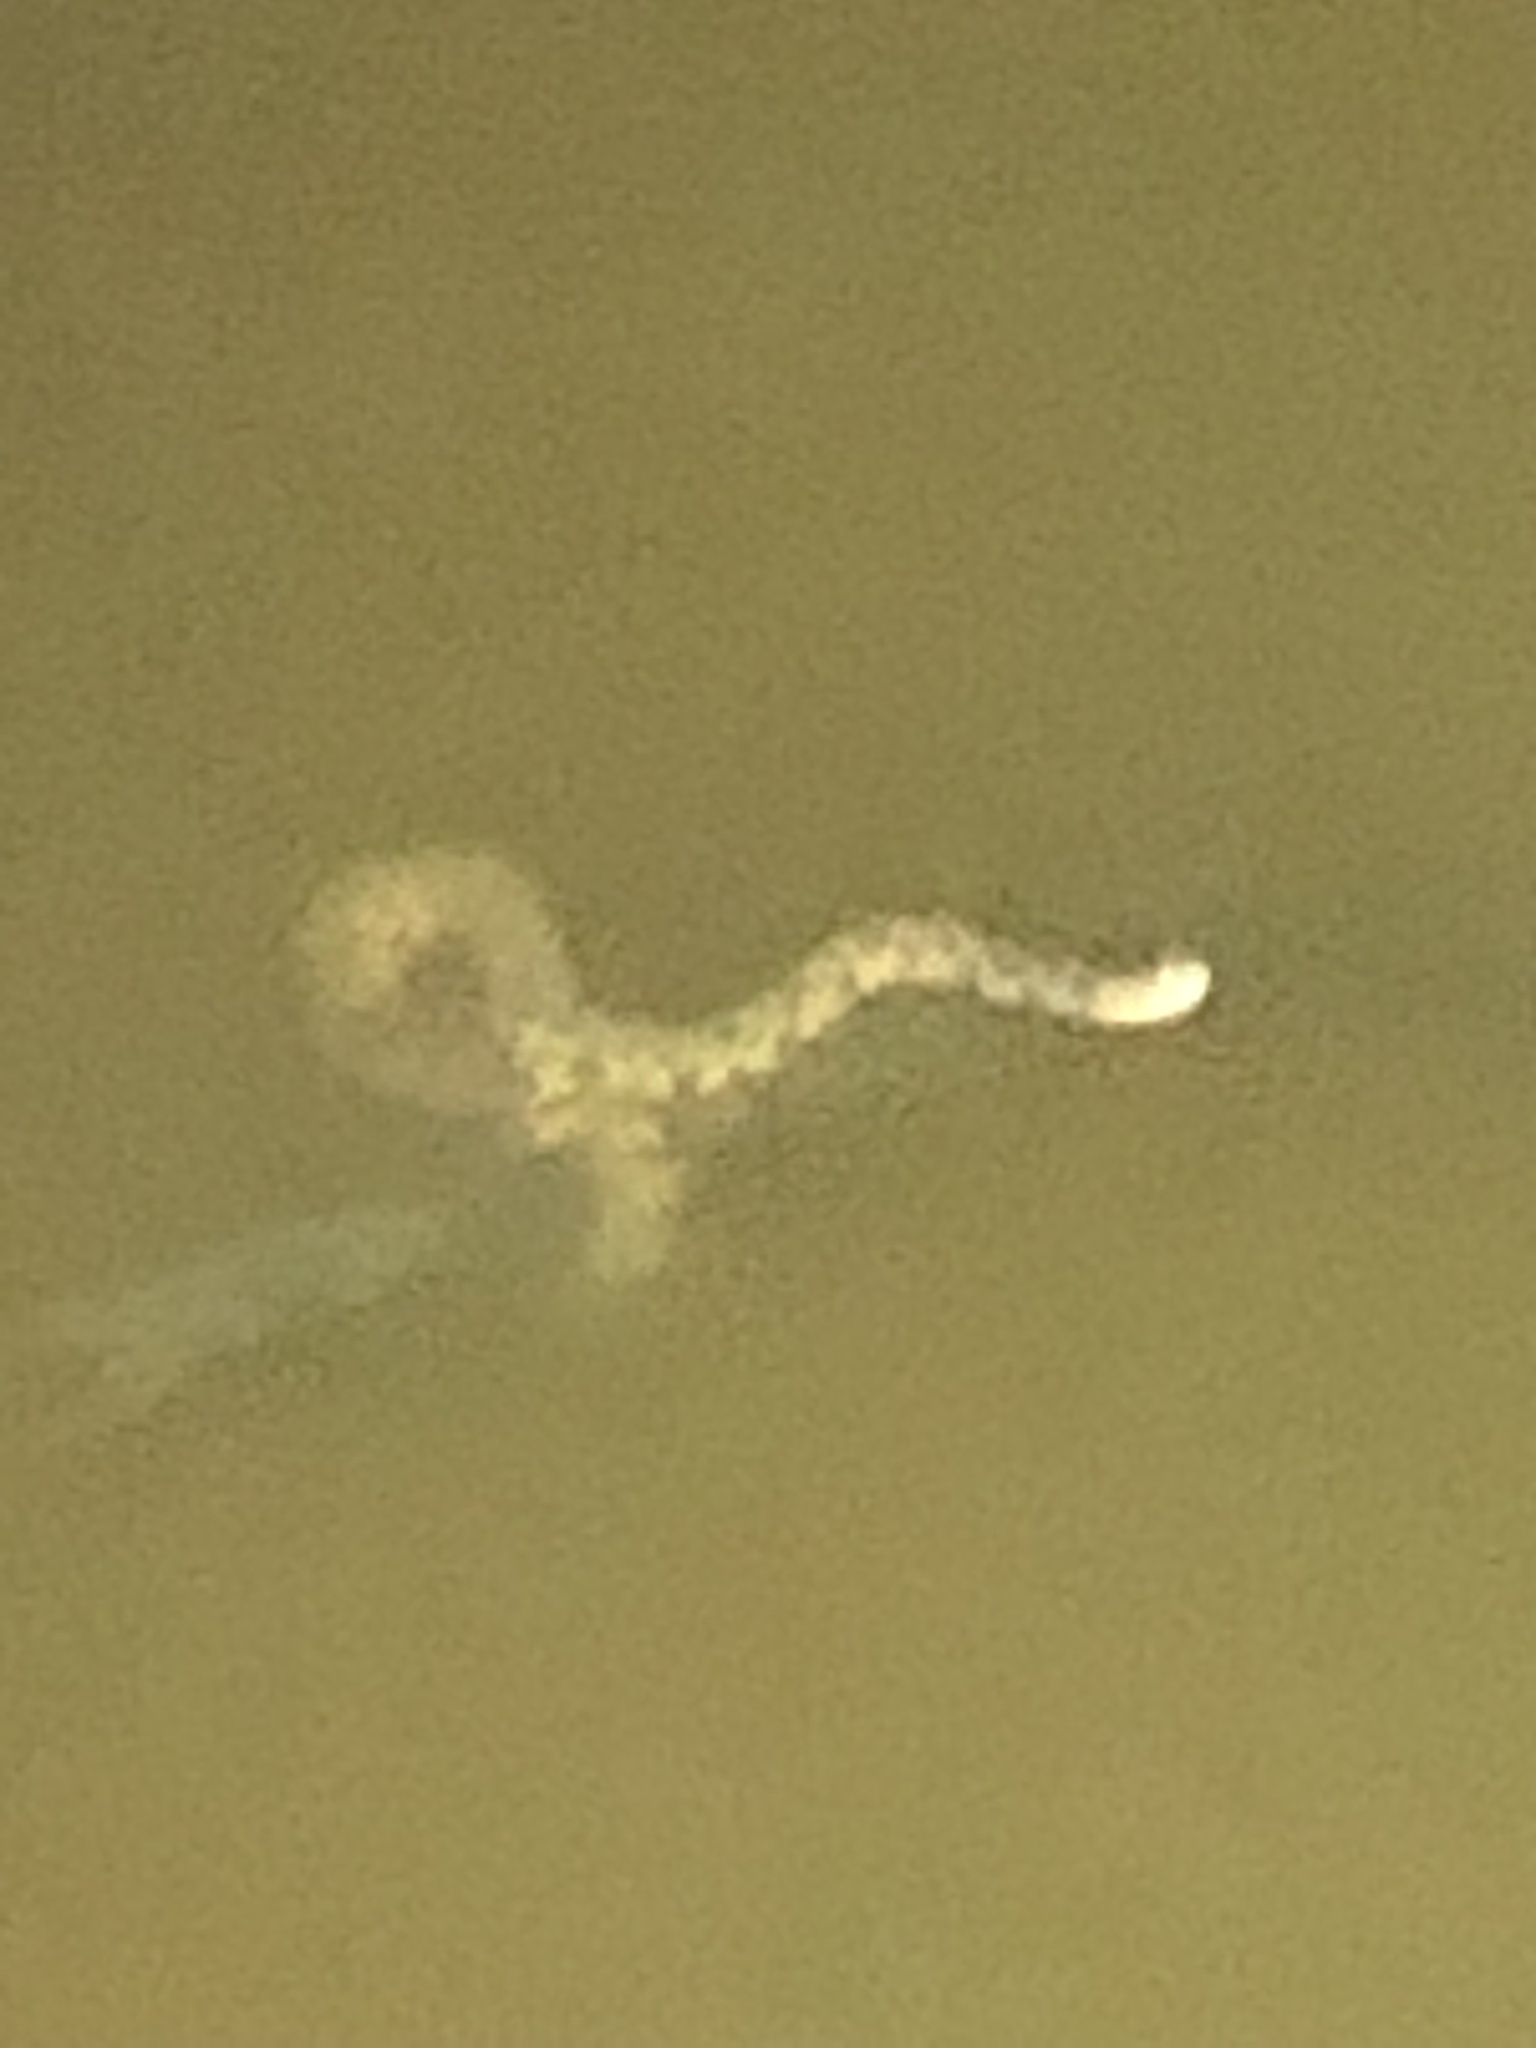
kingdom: Animalia
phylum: Chordata
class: Squamata
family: Colubridae
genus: Nerodia
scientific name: Nerodia rhombifer
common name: Diamondback water snake
